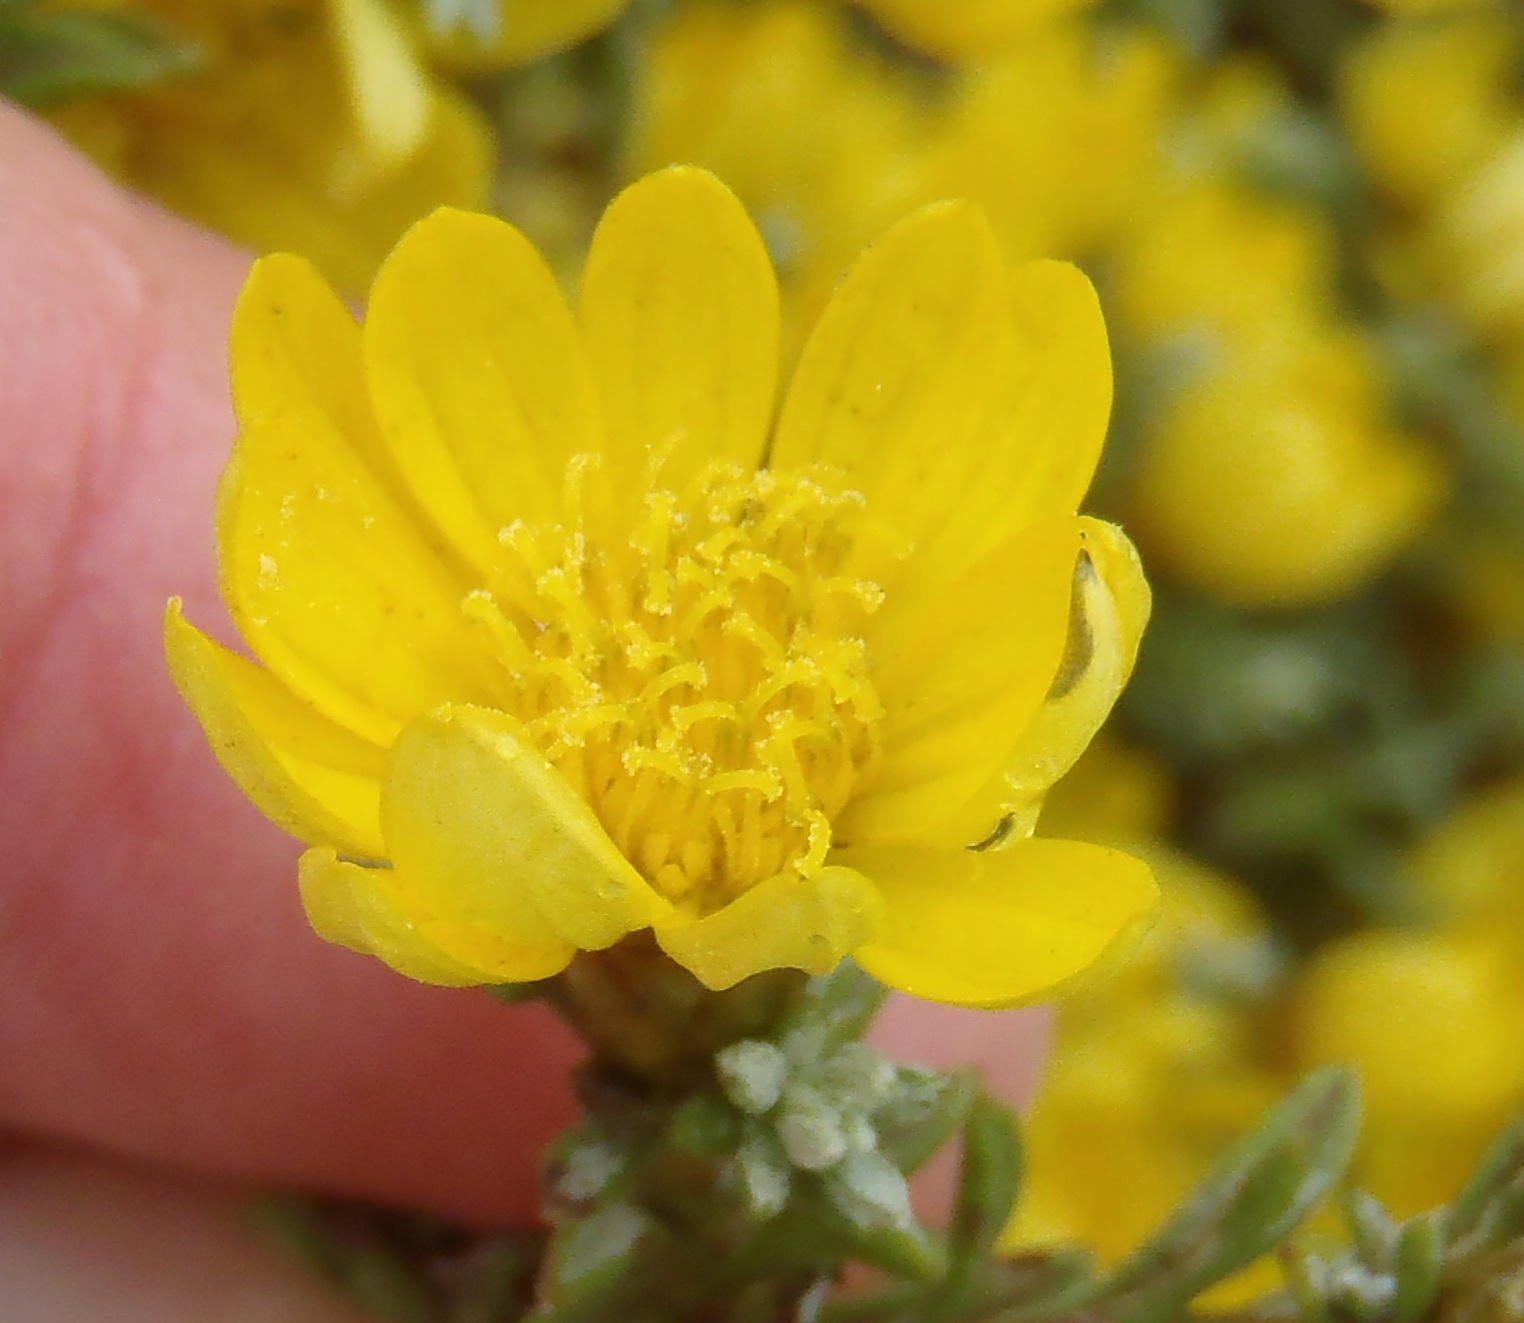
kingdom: Plantae
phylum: Tracheophyta
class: Magnoliopsida
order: Asterales
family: Asteraceae
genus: Oedera
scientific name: Oedera humilis
